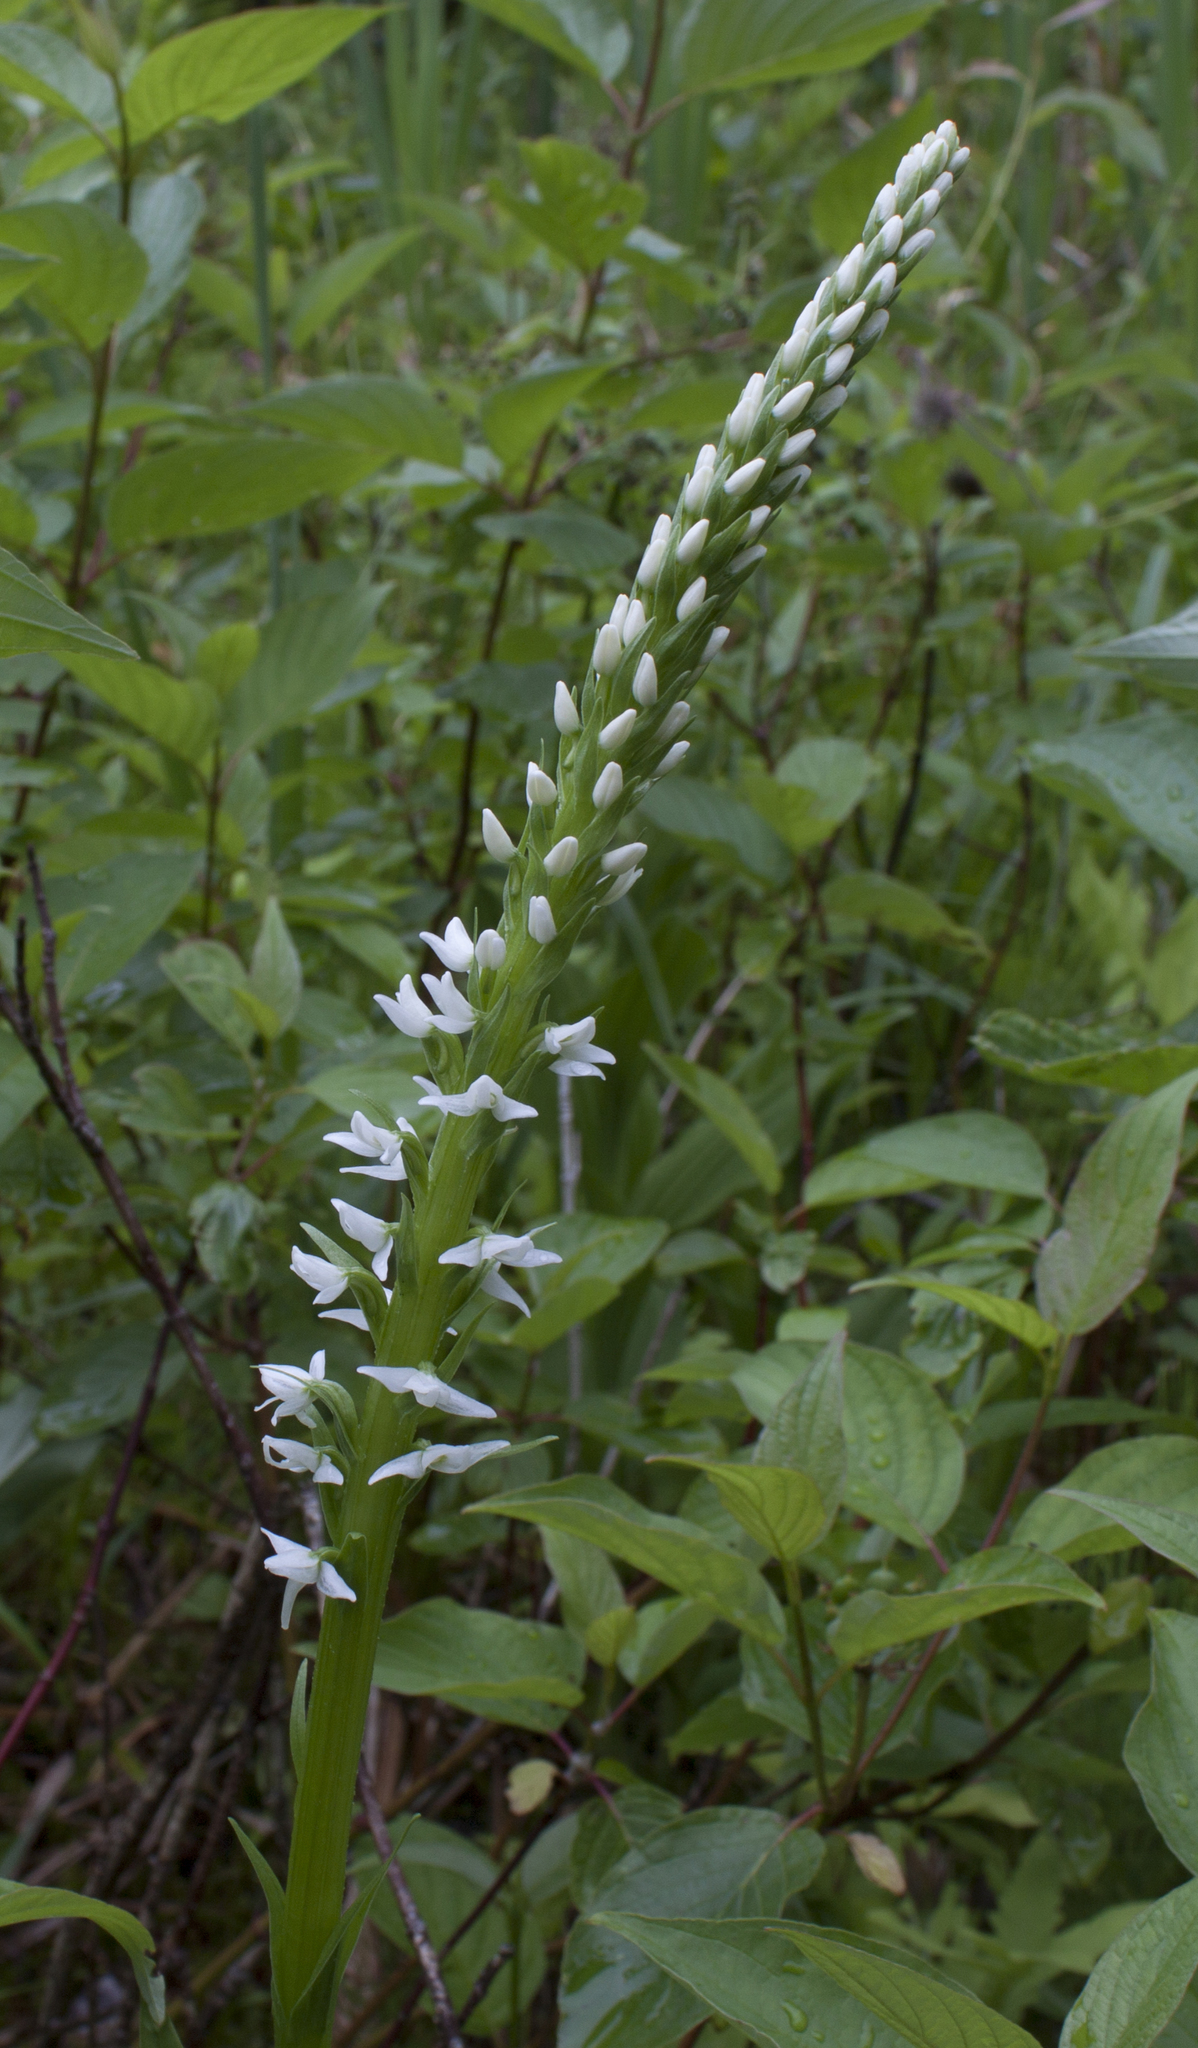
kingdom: Plantae
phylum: Tracheophyta
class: Liliopsida
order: Asparagales
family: Orchidaceae
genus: Platanthera
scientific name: Platanthera dilatata
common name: Bog candles
